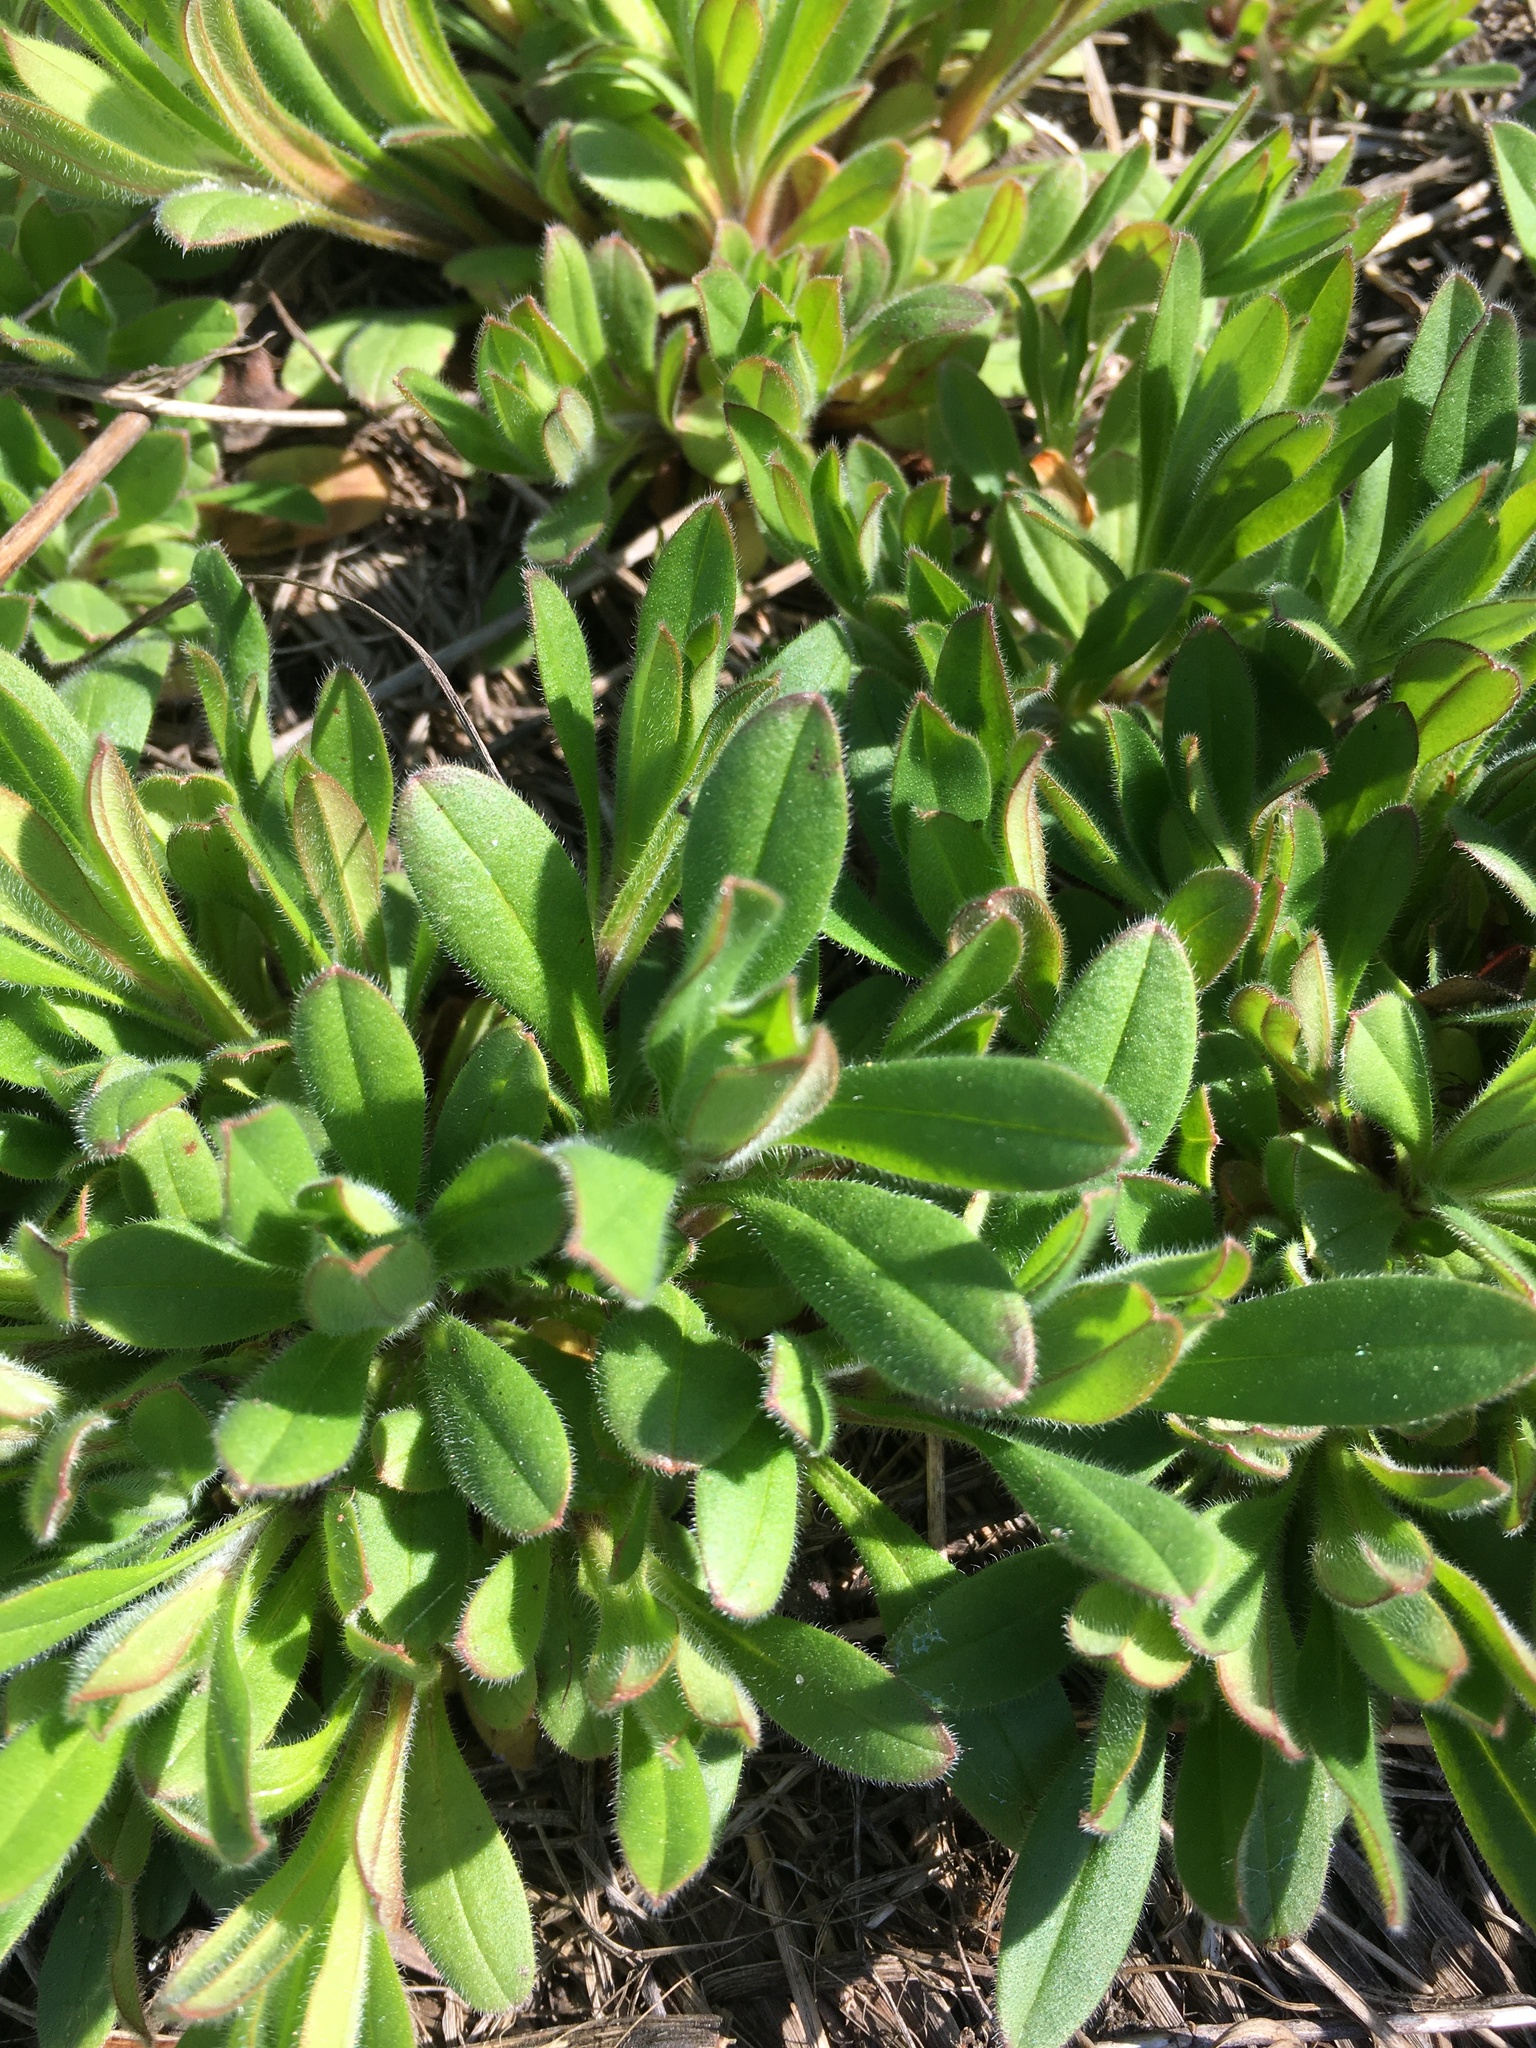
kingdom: Plantae
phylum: Tracheophyta
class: Magnoliopsida
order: Boraginales
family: Boraginaceae
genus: Myosotis
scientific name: Myosotis sparsiflora
